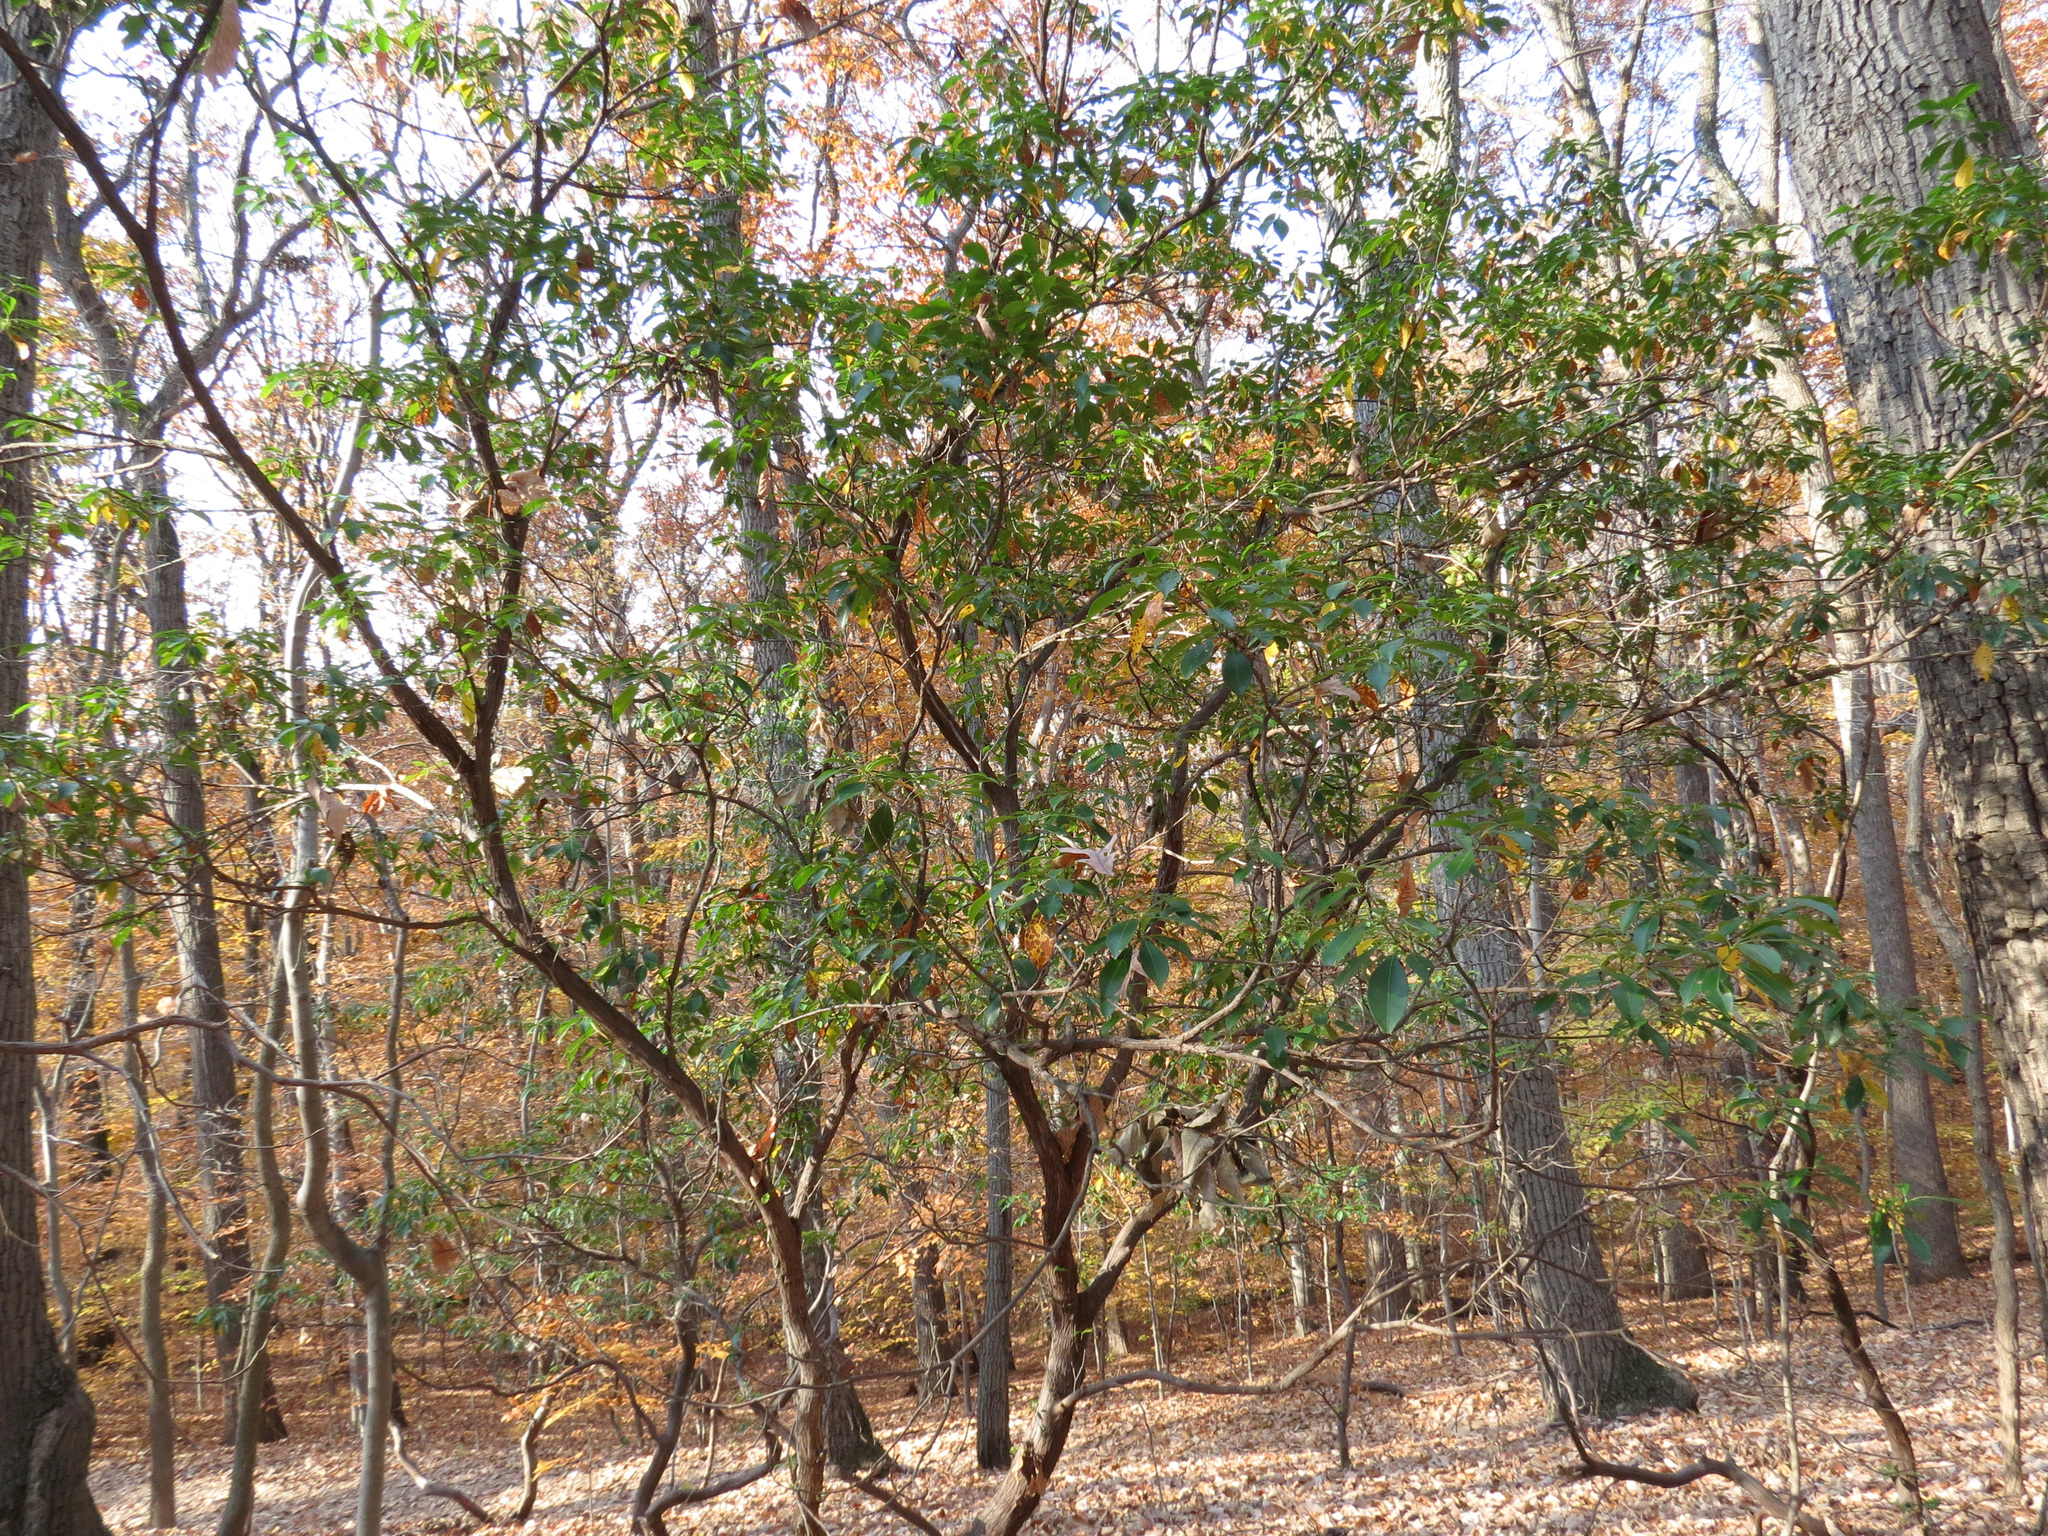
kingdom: Plantae
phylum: Tracheophyta
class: Magnoliopsida
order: Ericales
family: Ericaceae
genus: Kalmia
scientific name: Kalmia latifolia
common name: Mountain-laurel
